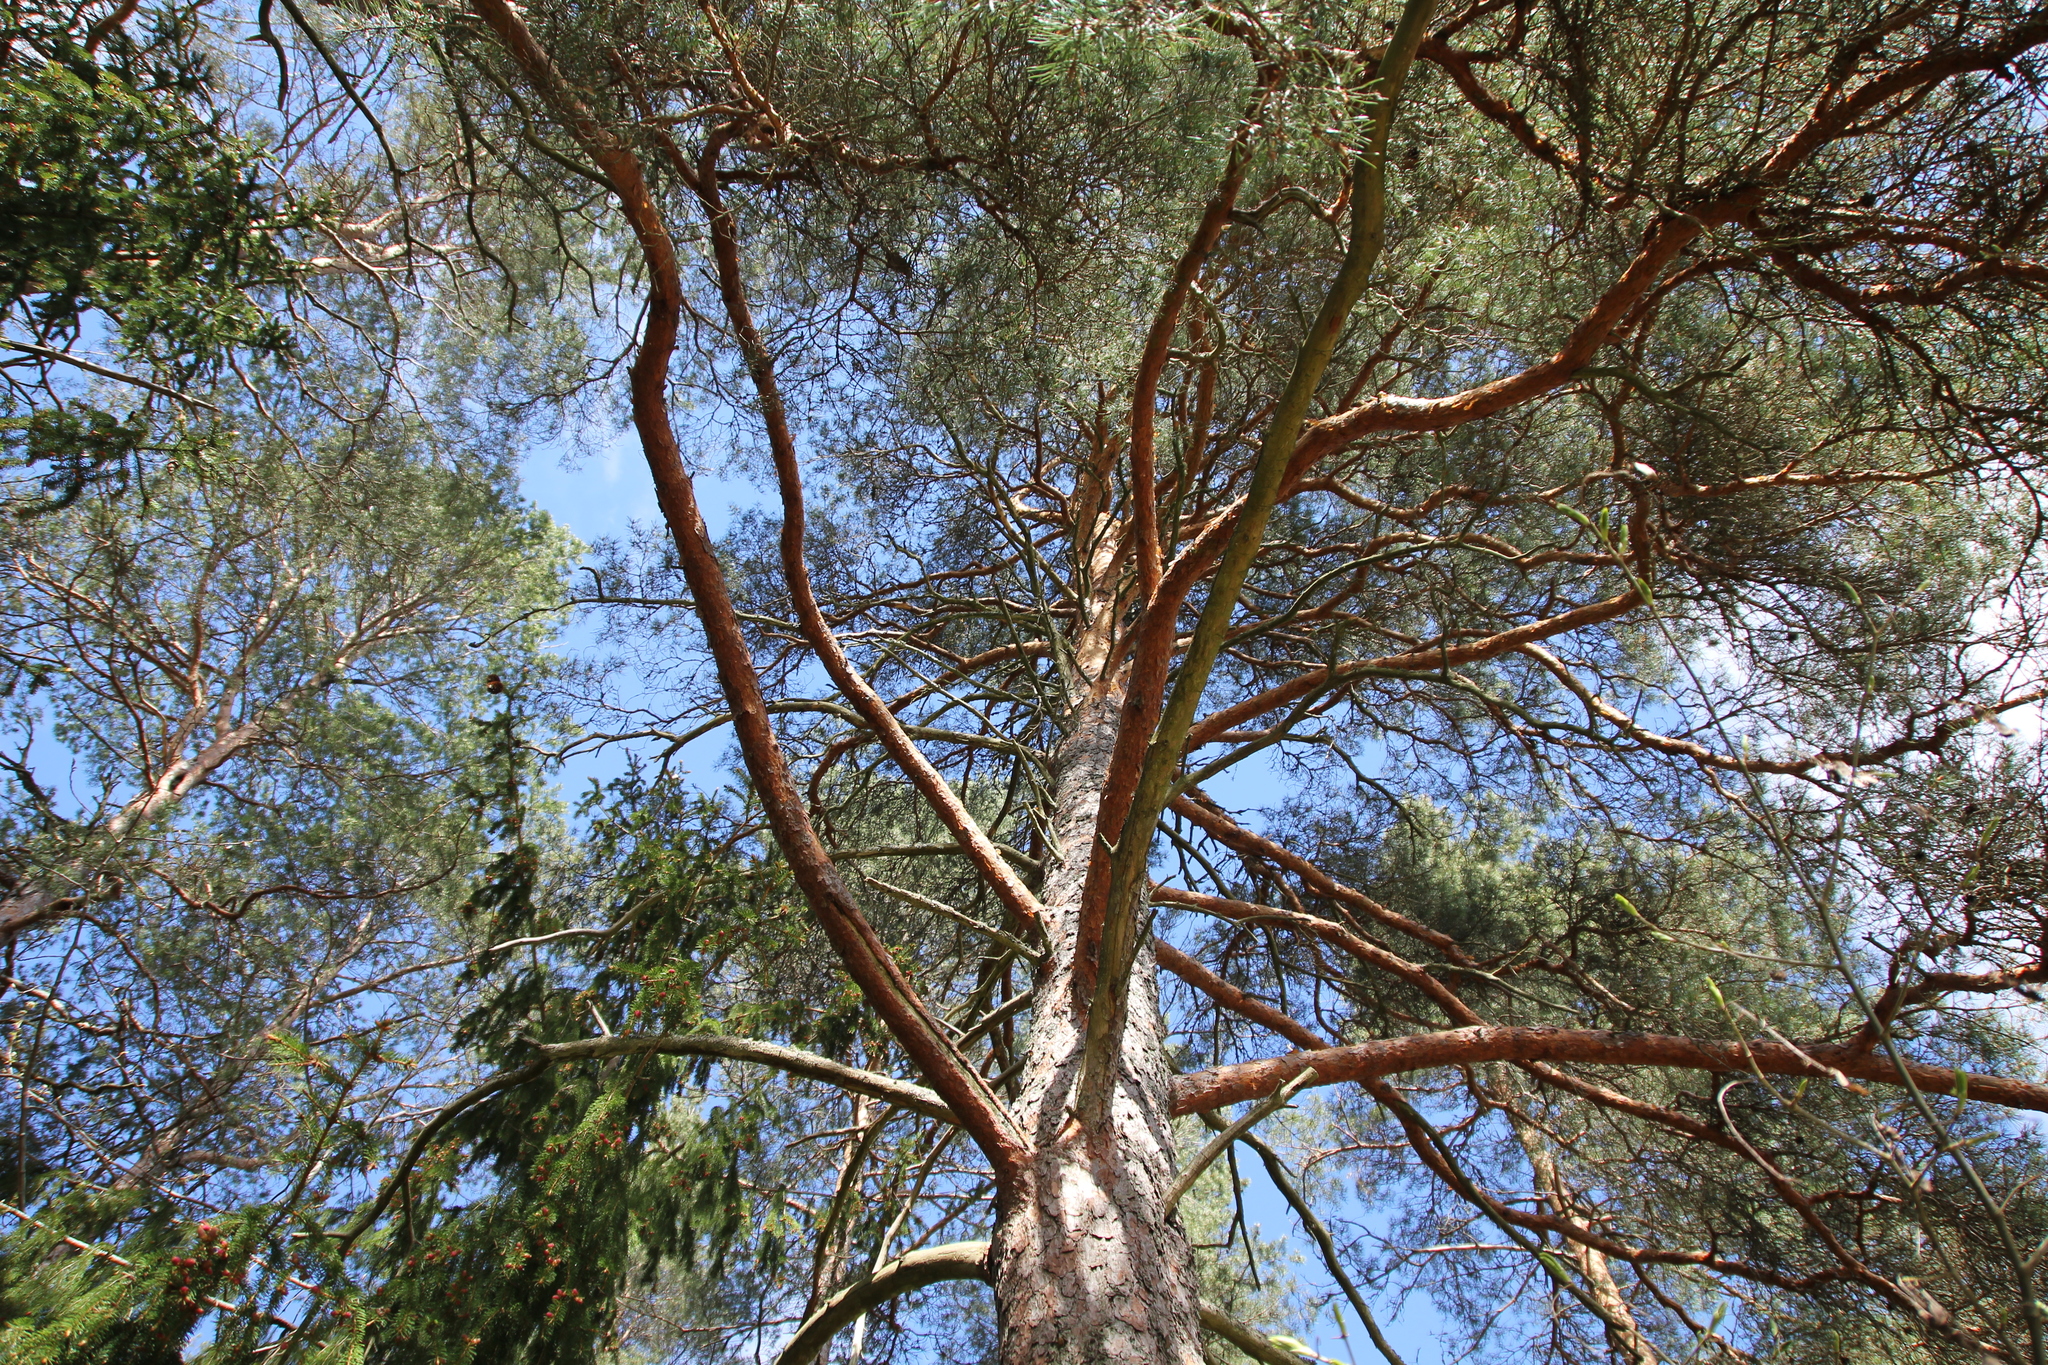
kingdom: Plantae
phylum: Tracheophyta
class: Pinopsida
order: Pinales
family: Pinaceae
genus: Pinus
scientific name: Pinus sylvestris
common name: Scots pine
